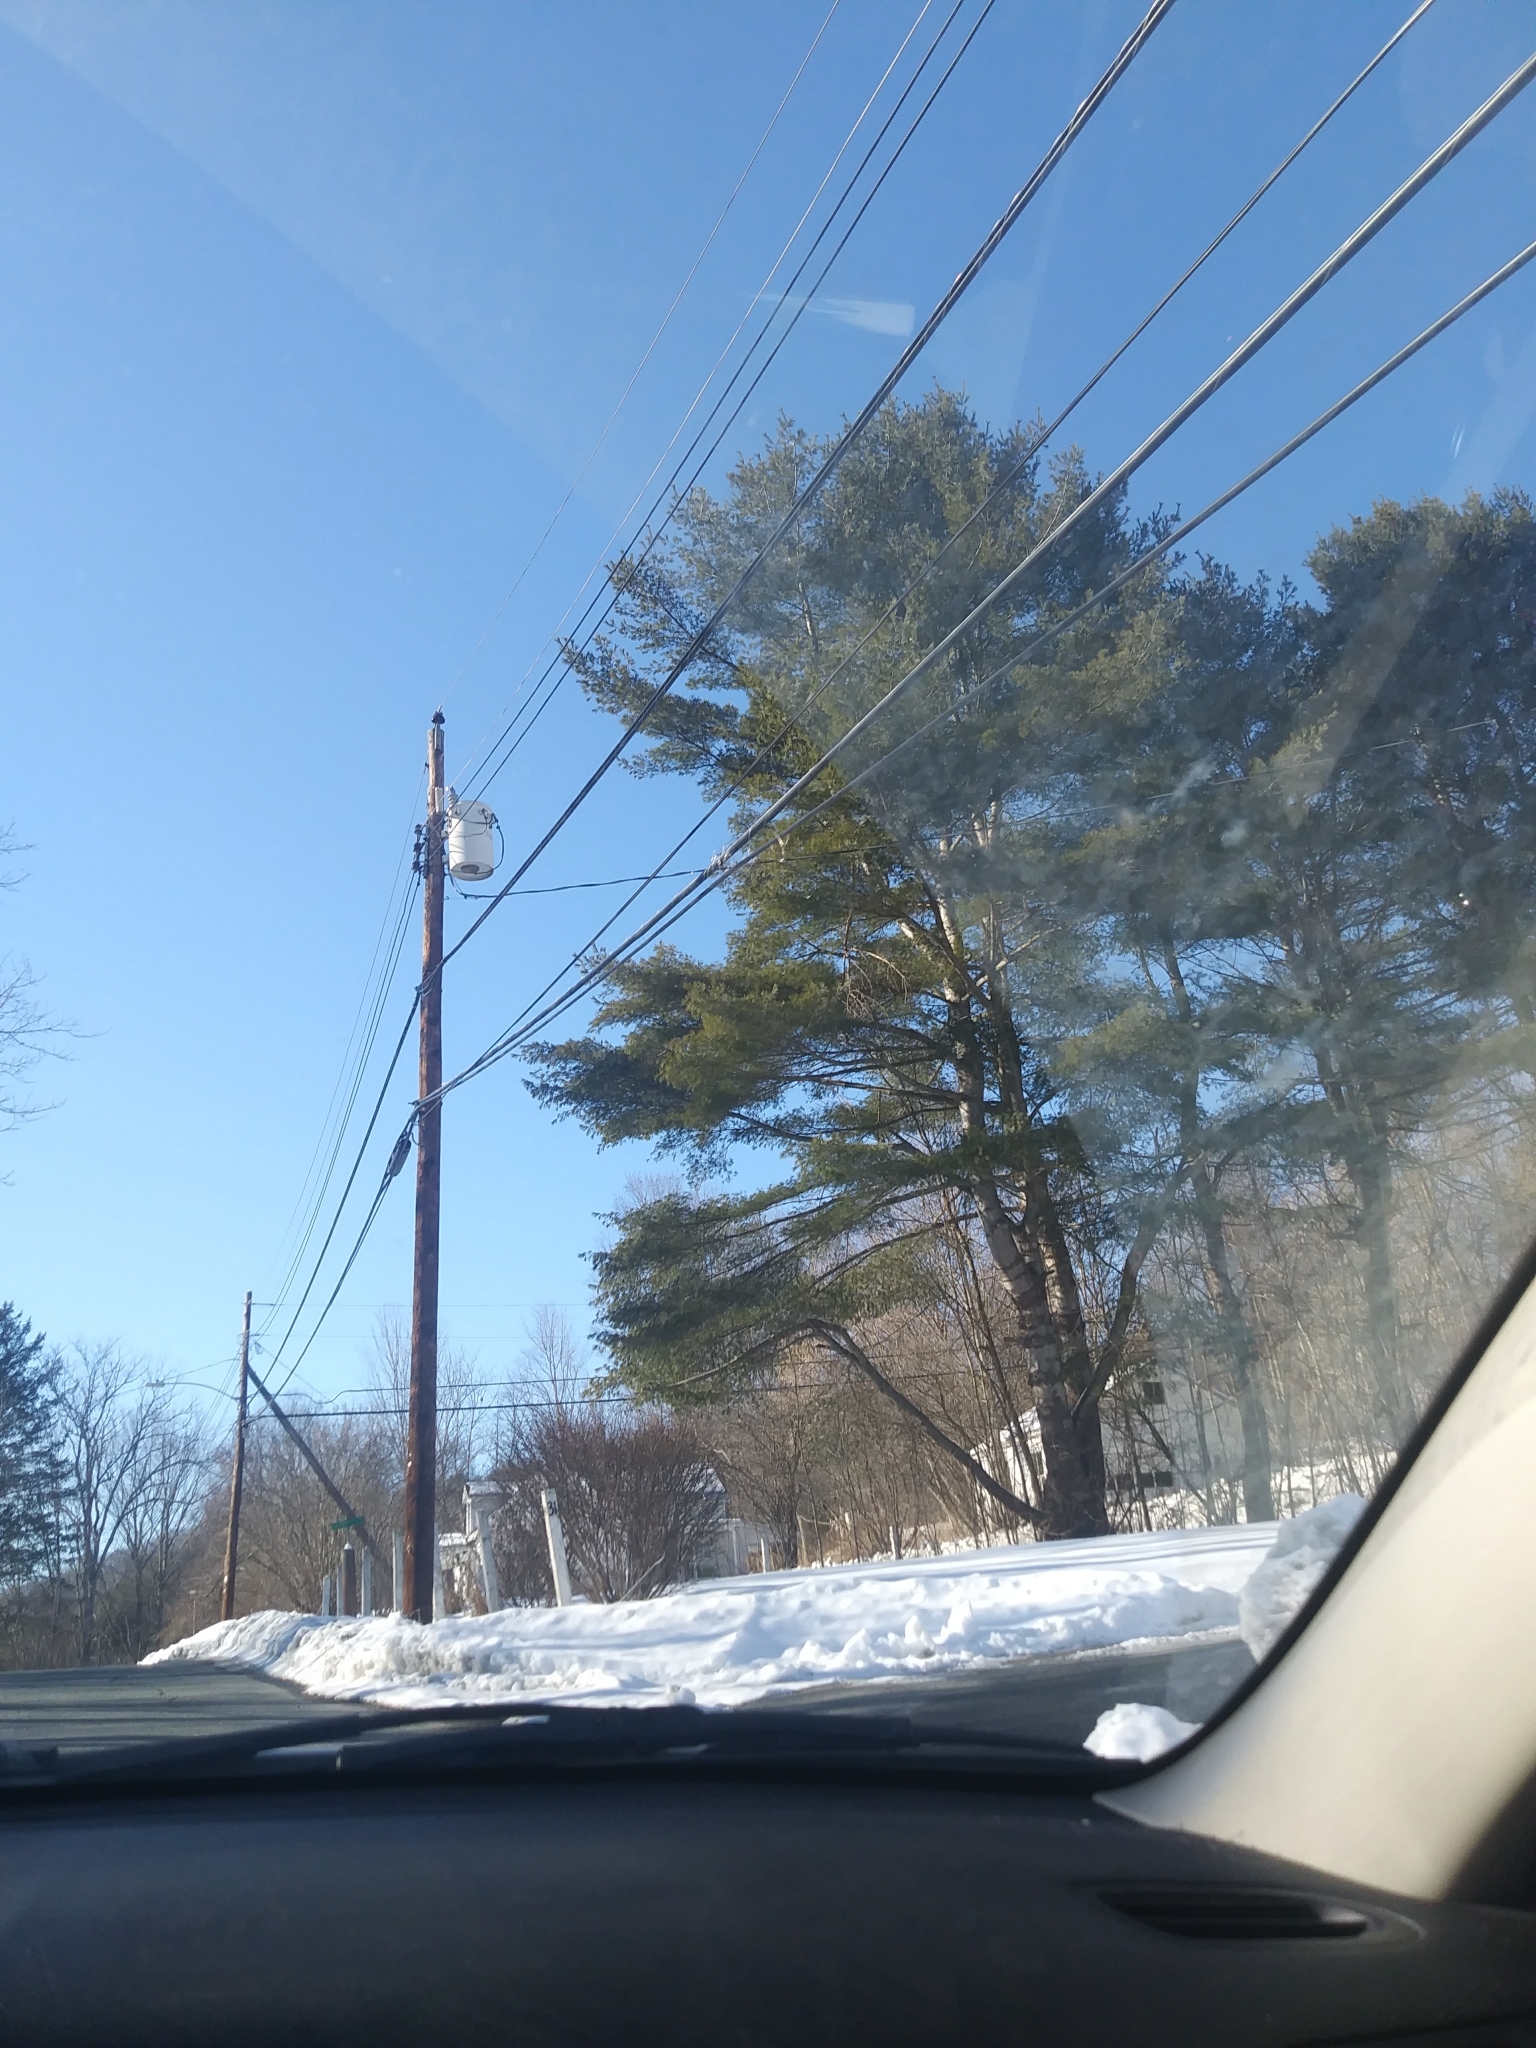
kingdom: Plantae
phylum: Tracheophyta
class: Pinopsida
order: Pinales
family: Pinaceae
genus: Pinus
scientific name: Pinus strobus
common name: Weymouth pine
